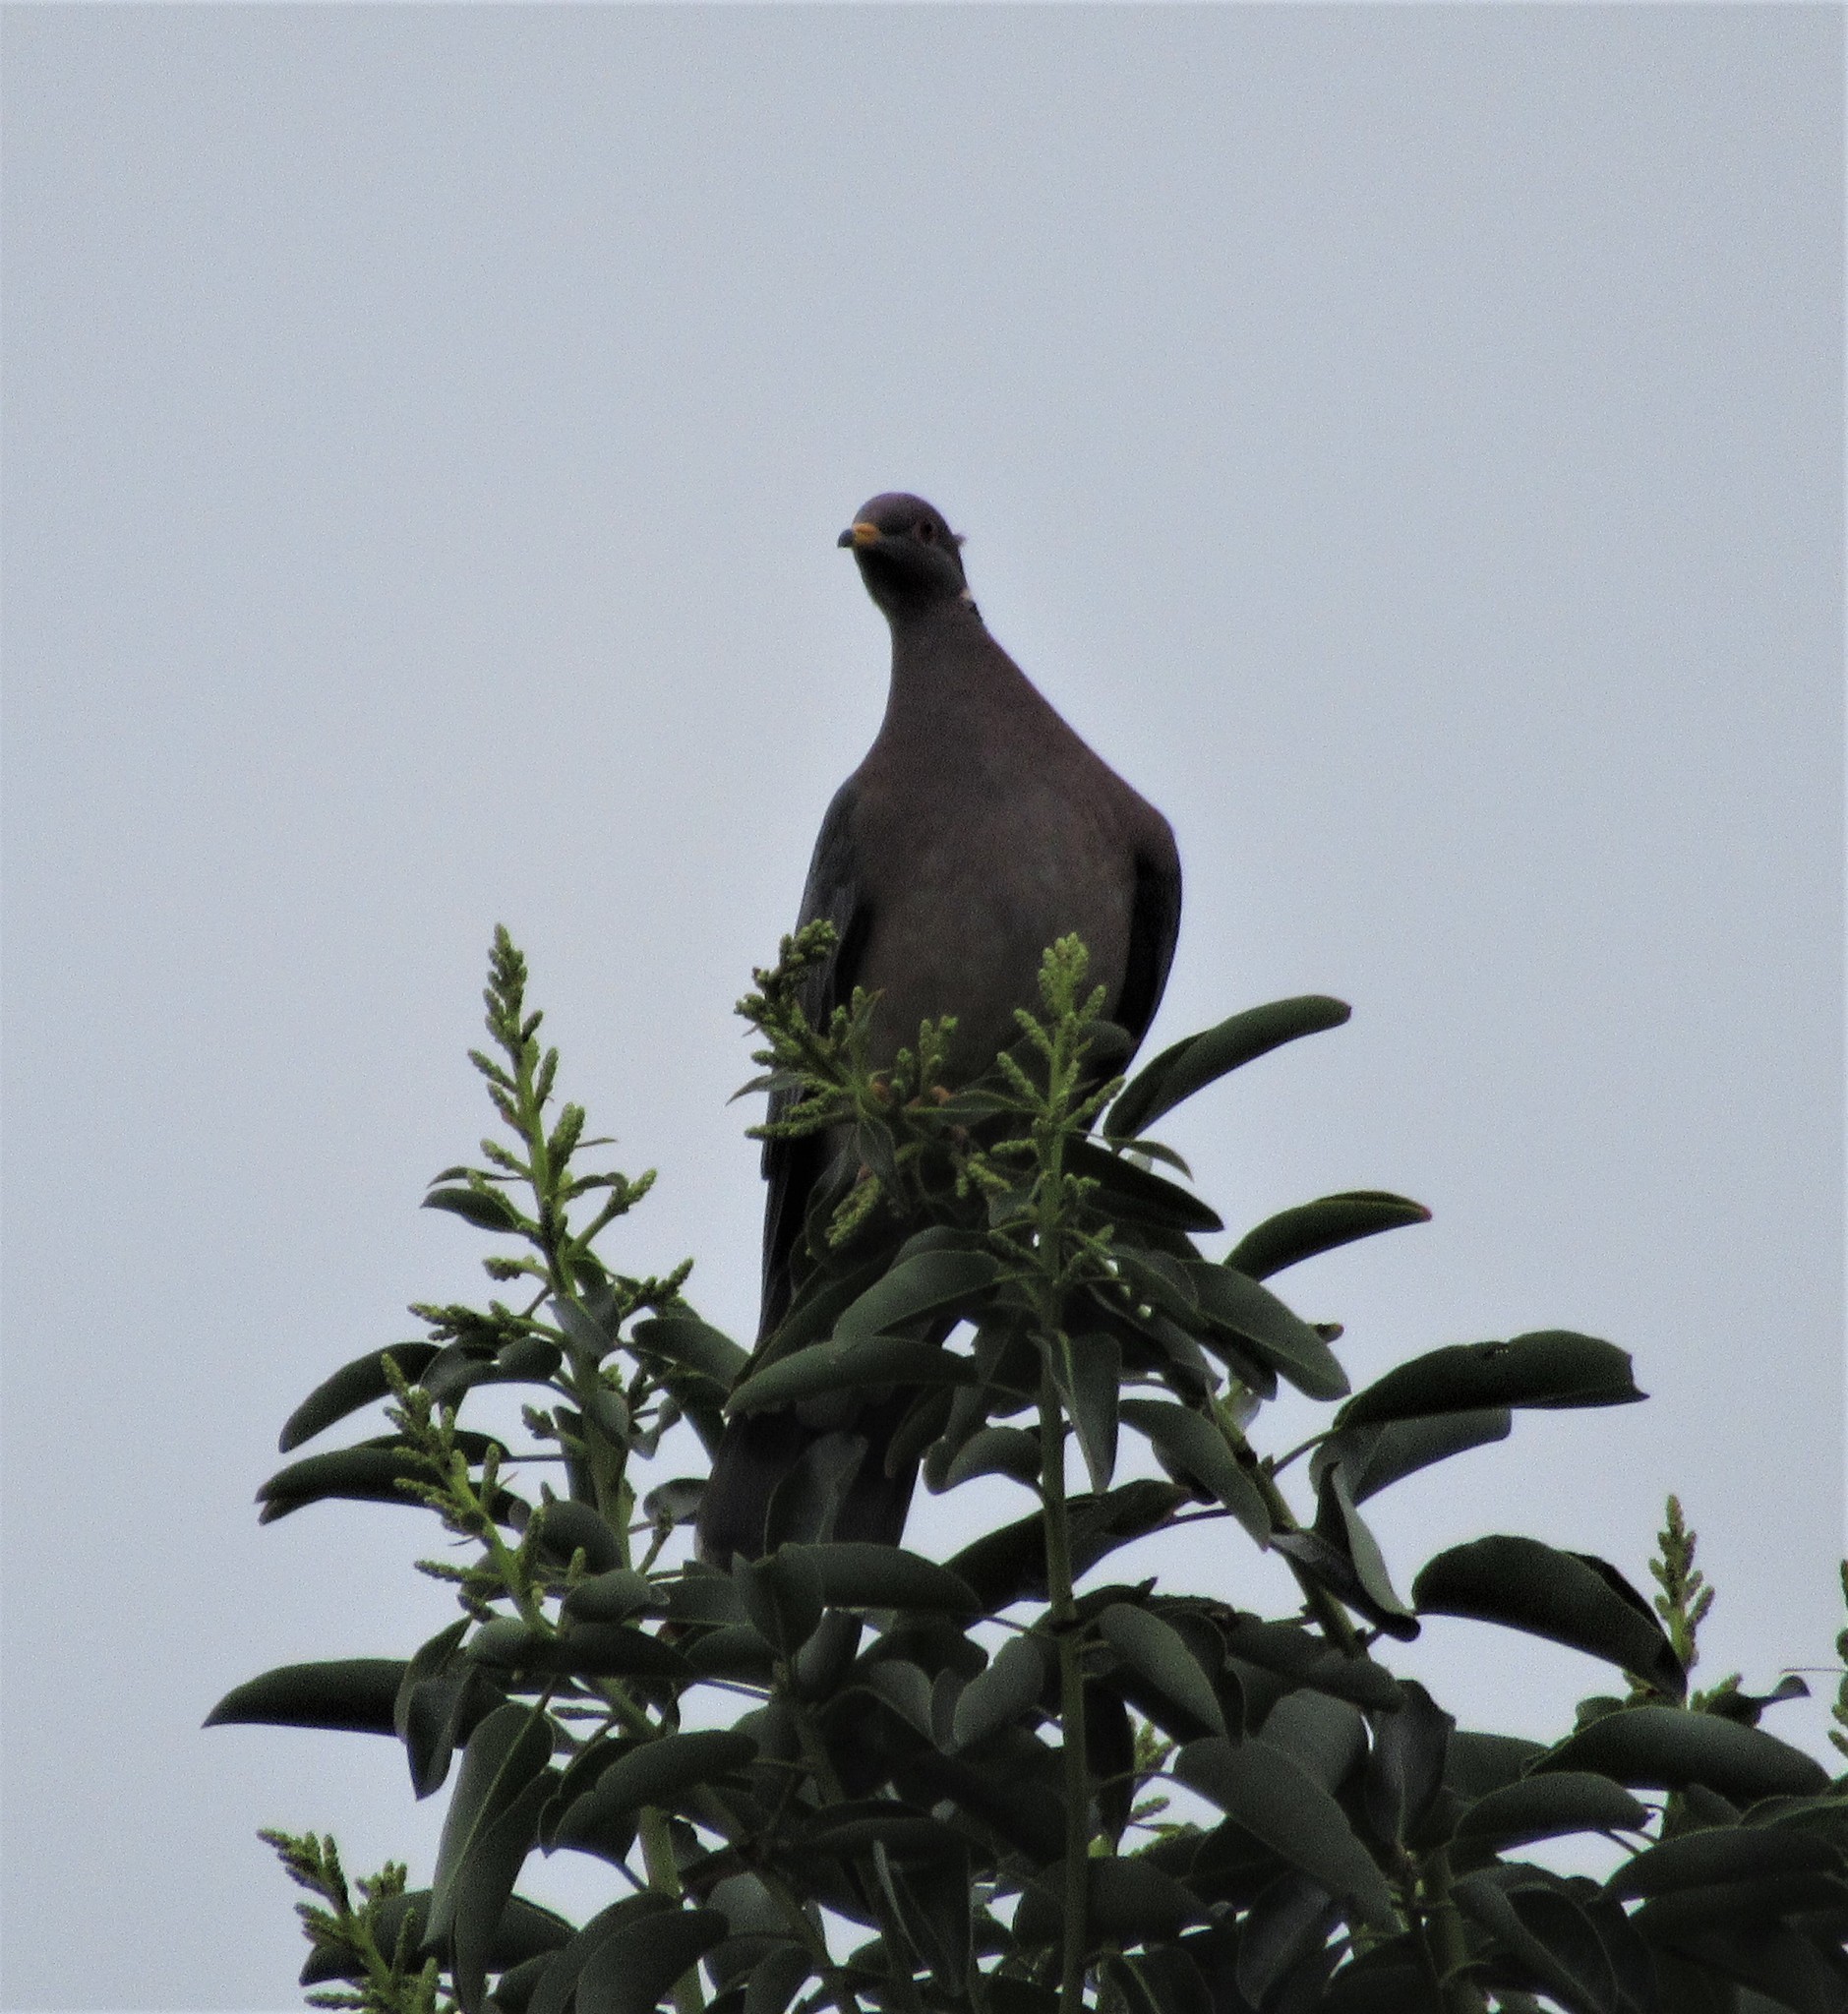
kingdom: Animalia
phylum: Chordata
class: Aves
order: Columbiformes
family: Columbidae
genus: Patagioenas
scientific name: Patagioenas fasciata
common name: Band-tailed pigeon
